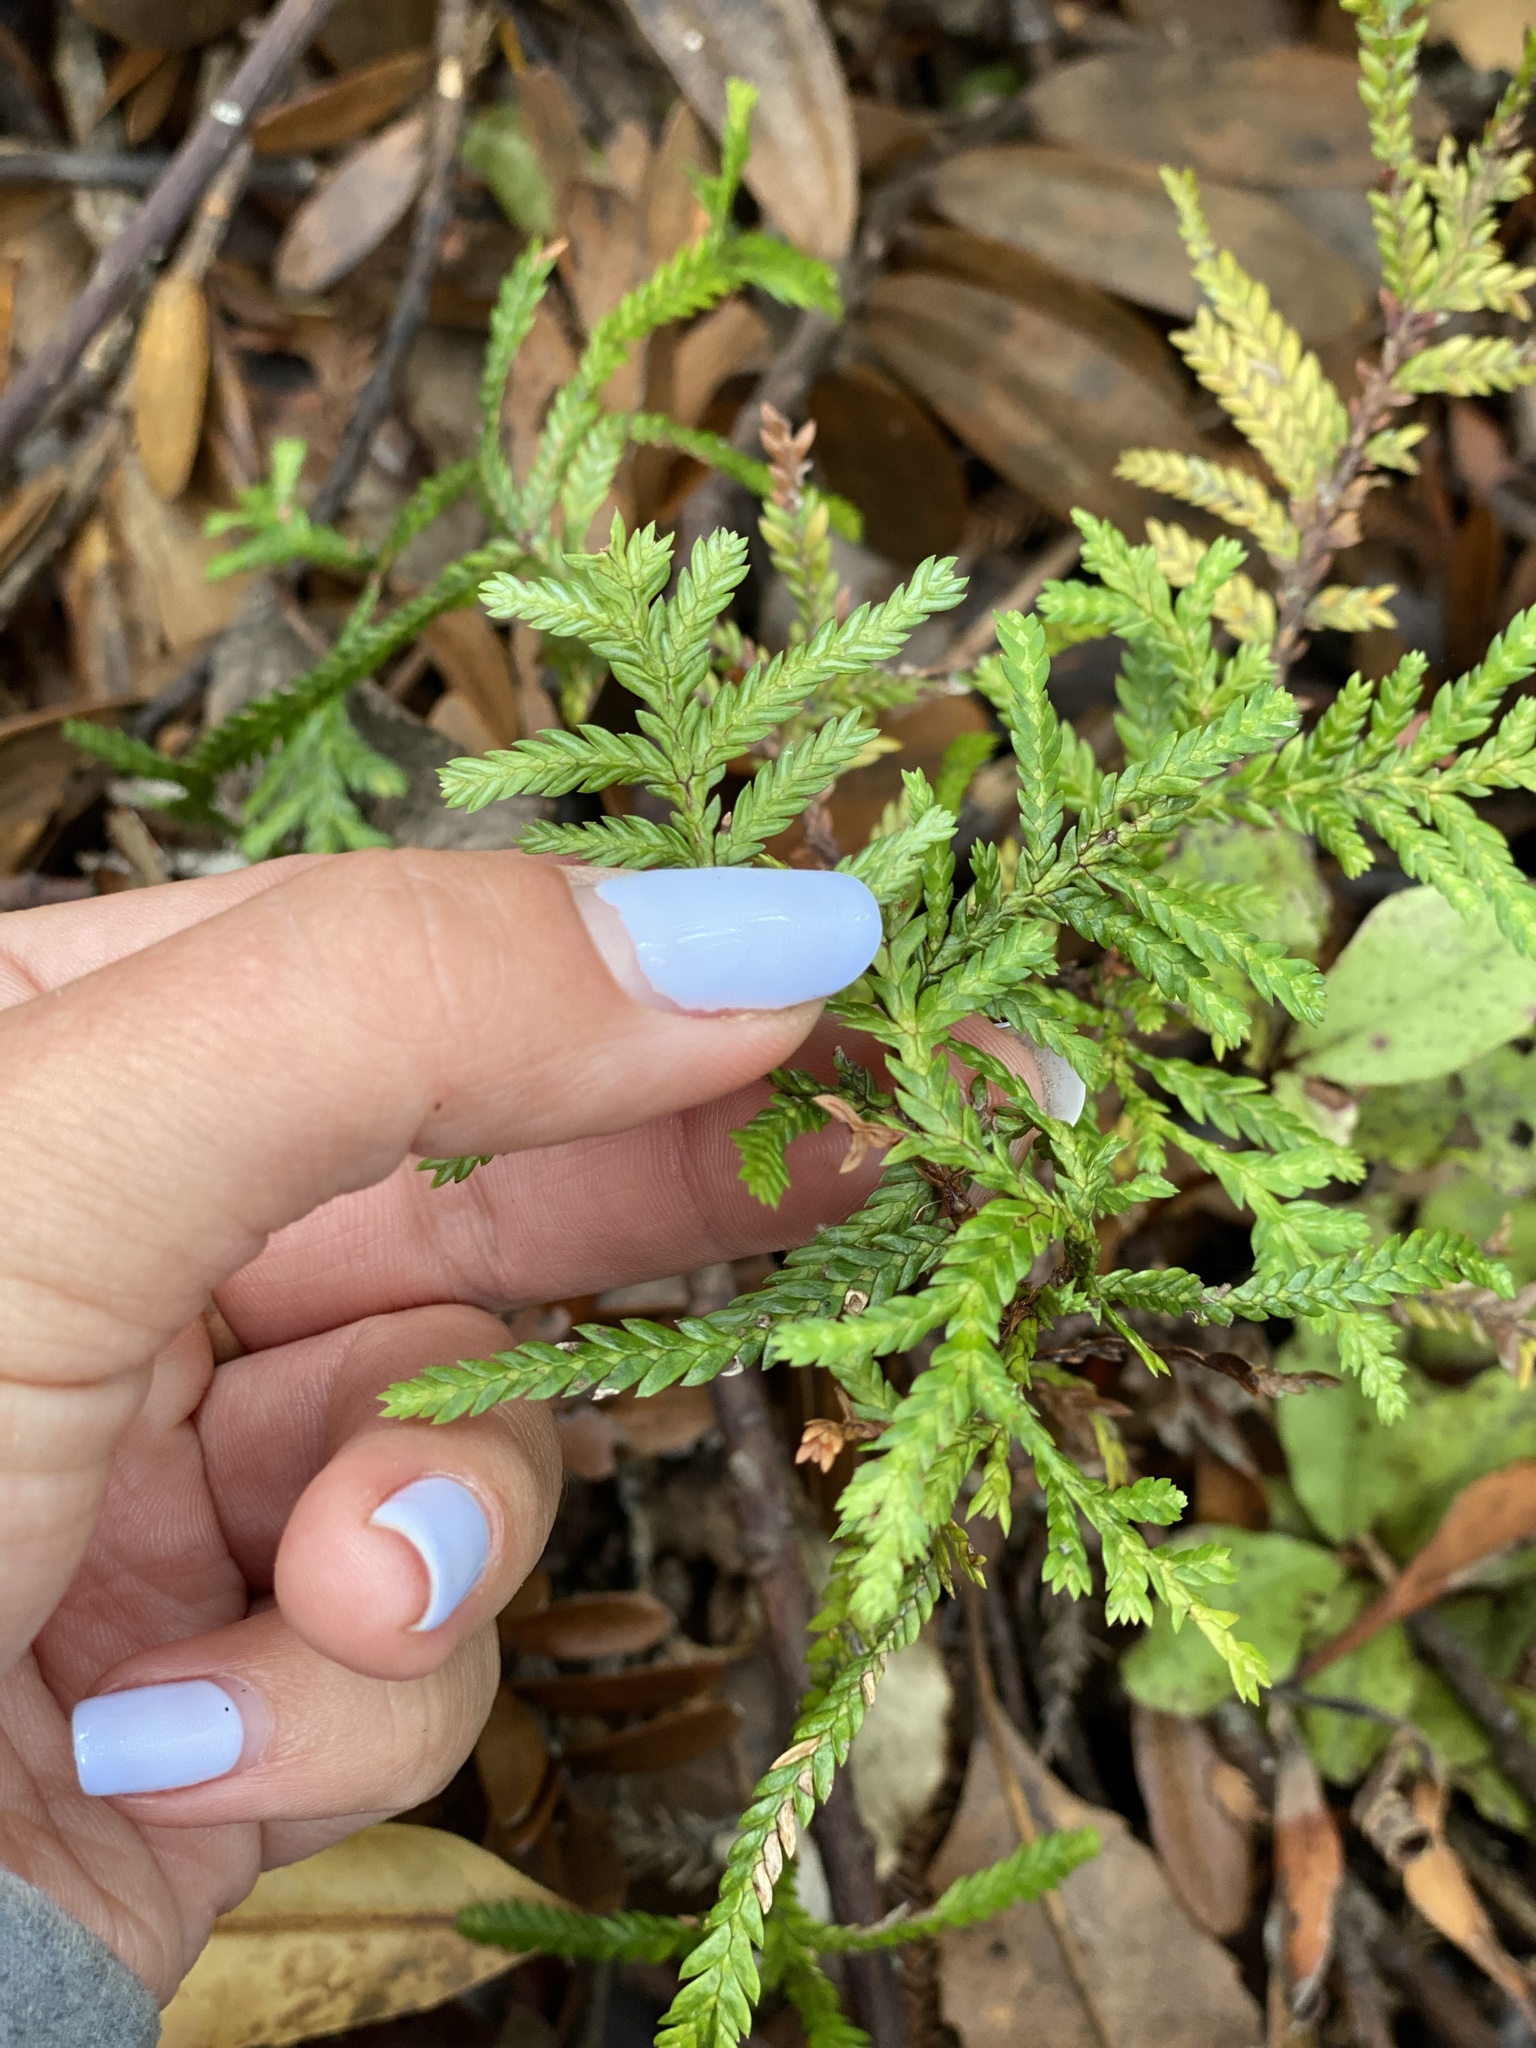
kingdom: Plantae
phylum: Tracheophyta
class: Pinopsida
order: Pinales
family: Cupressaceae
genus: Libocedrus
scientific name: Libocedrus plumosa
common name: New zealand cedar
